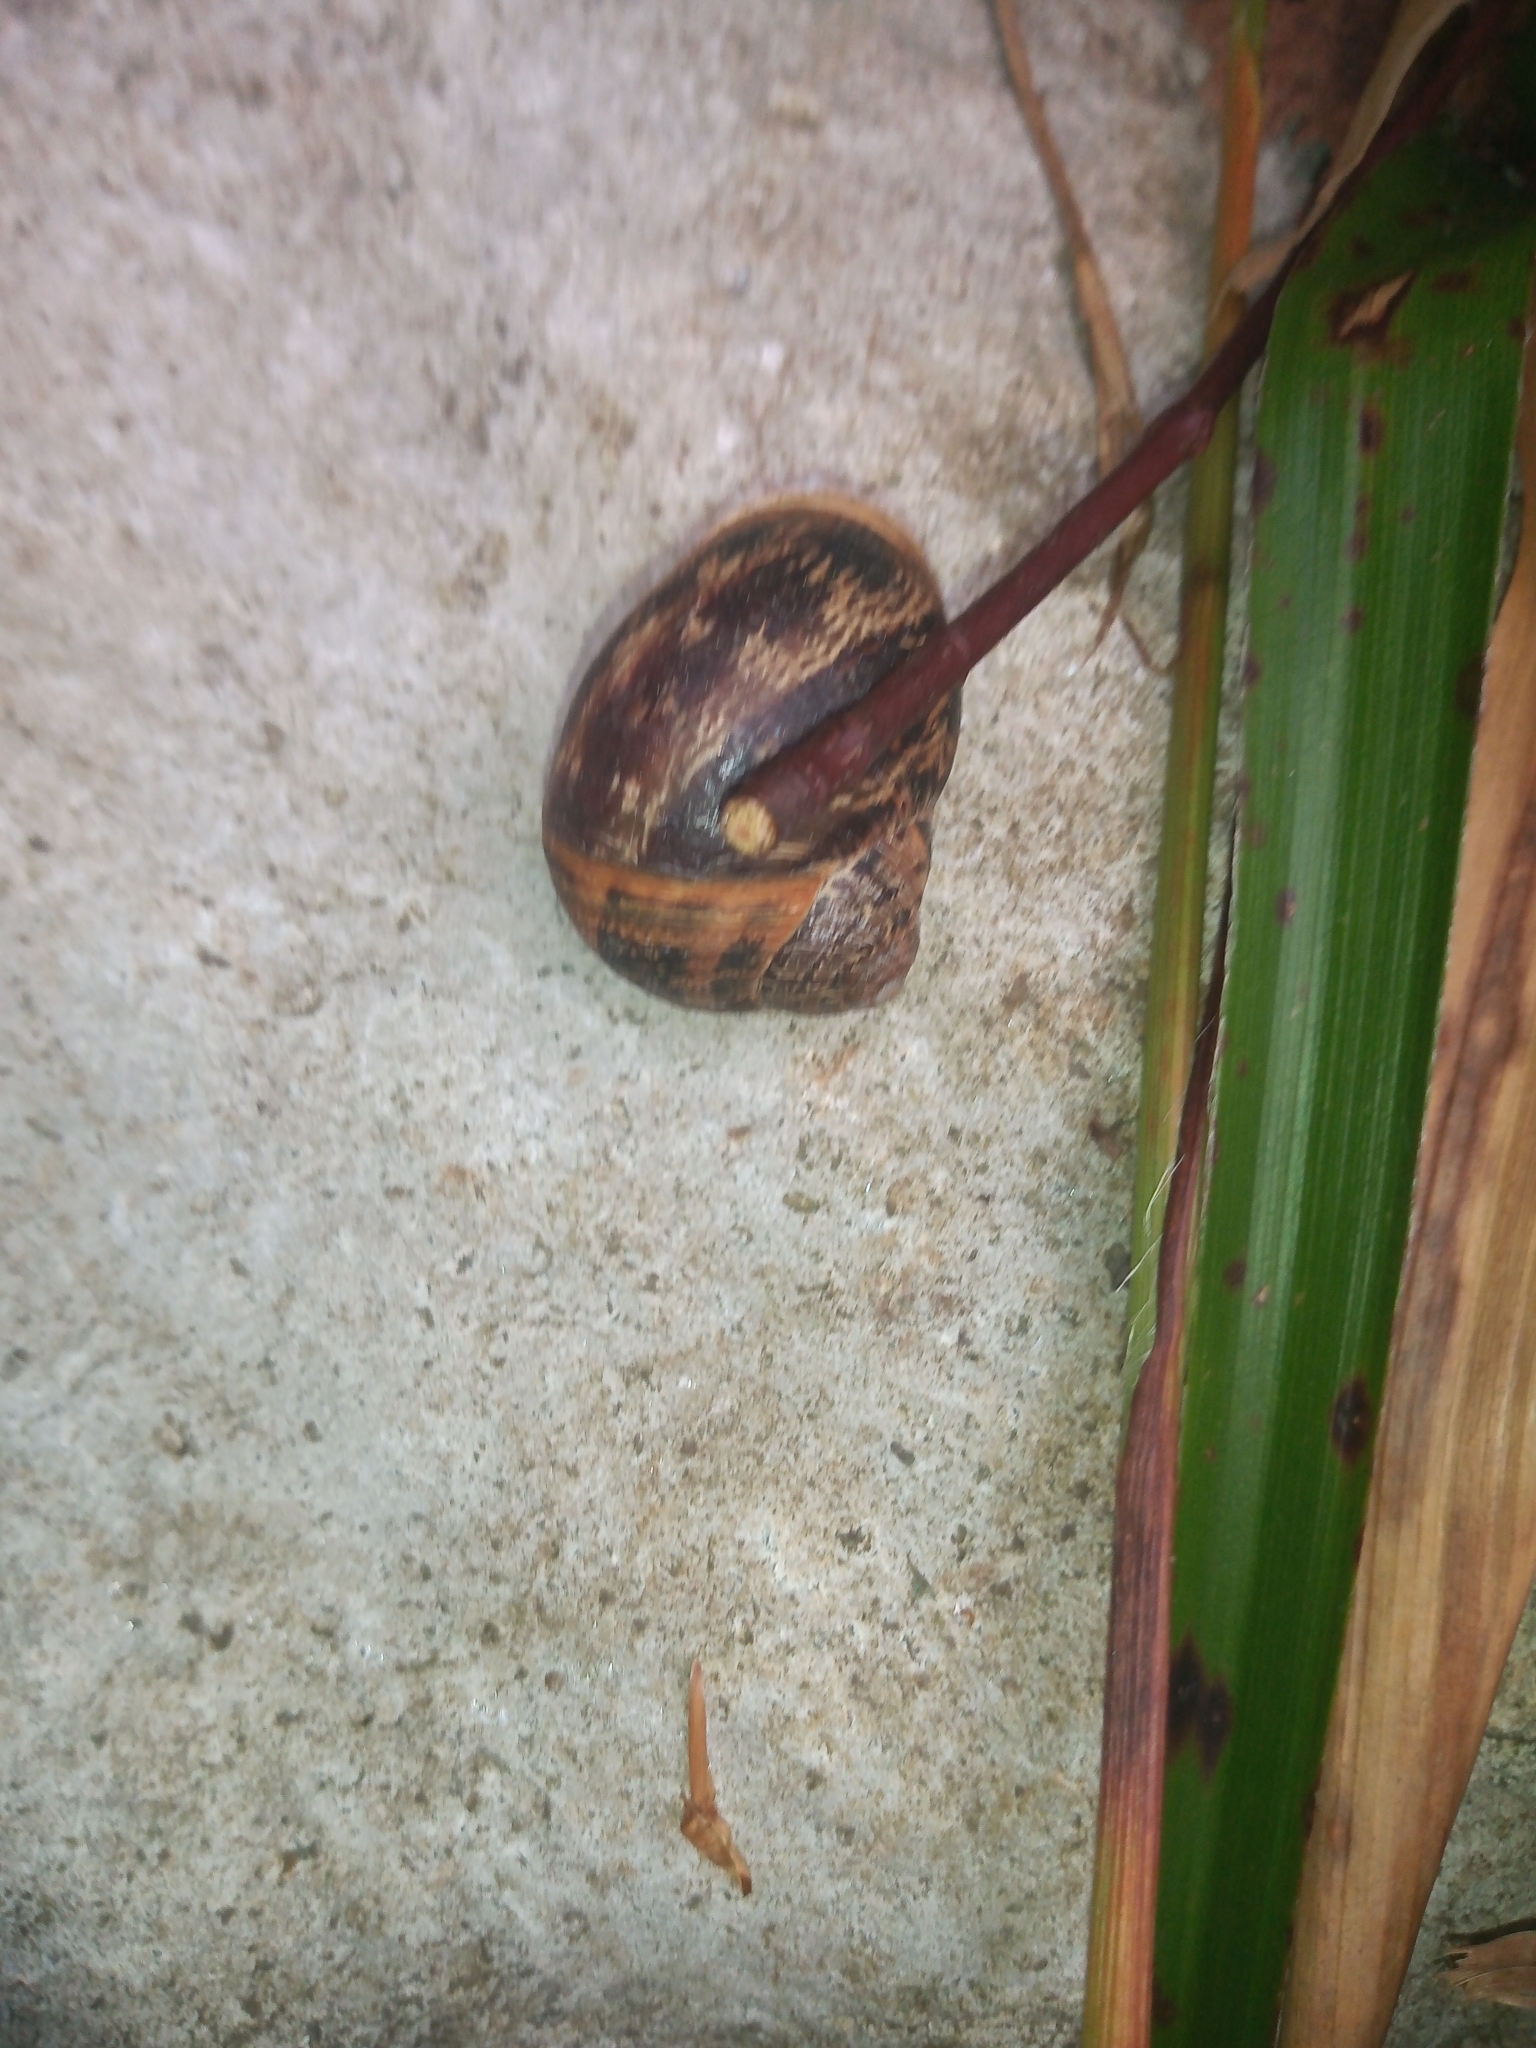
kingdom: Animalia
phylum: Mollusca
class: Gastropoda
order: Stylommatophora
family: Helicidae
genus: Cornu
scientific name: Cornu aspersum
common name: Brown garden snail
